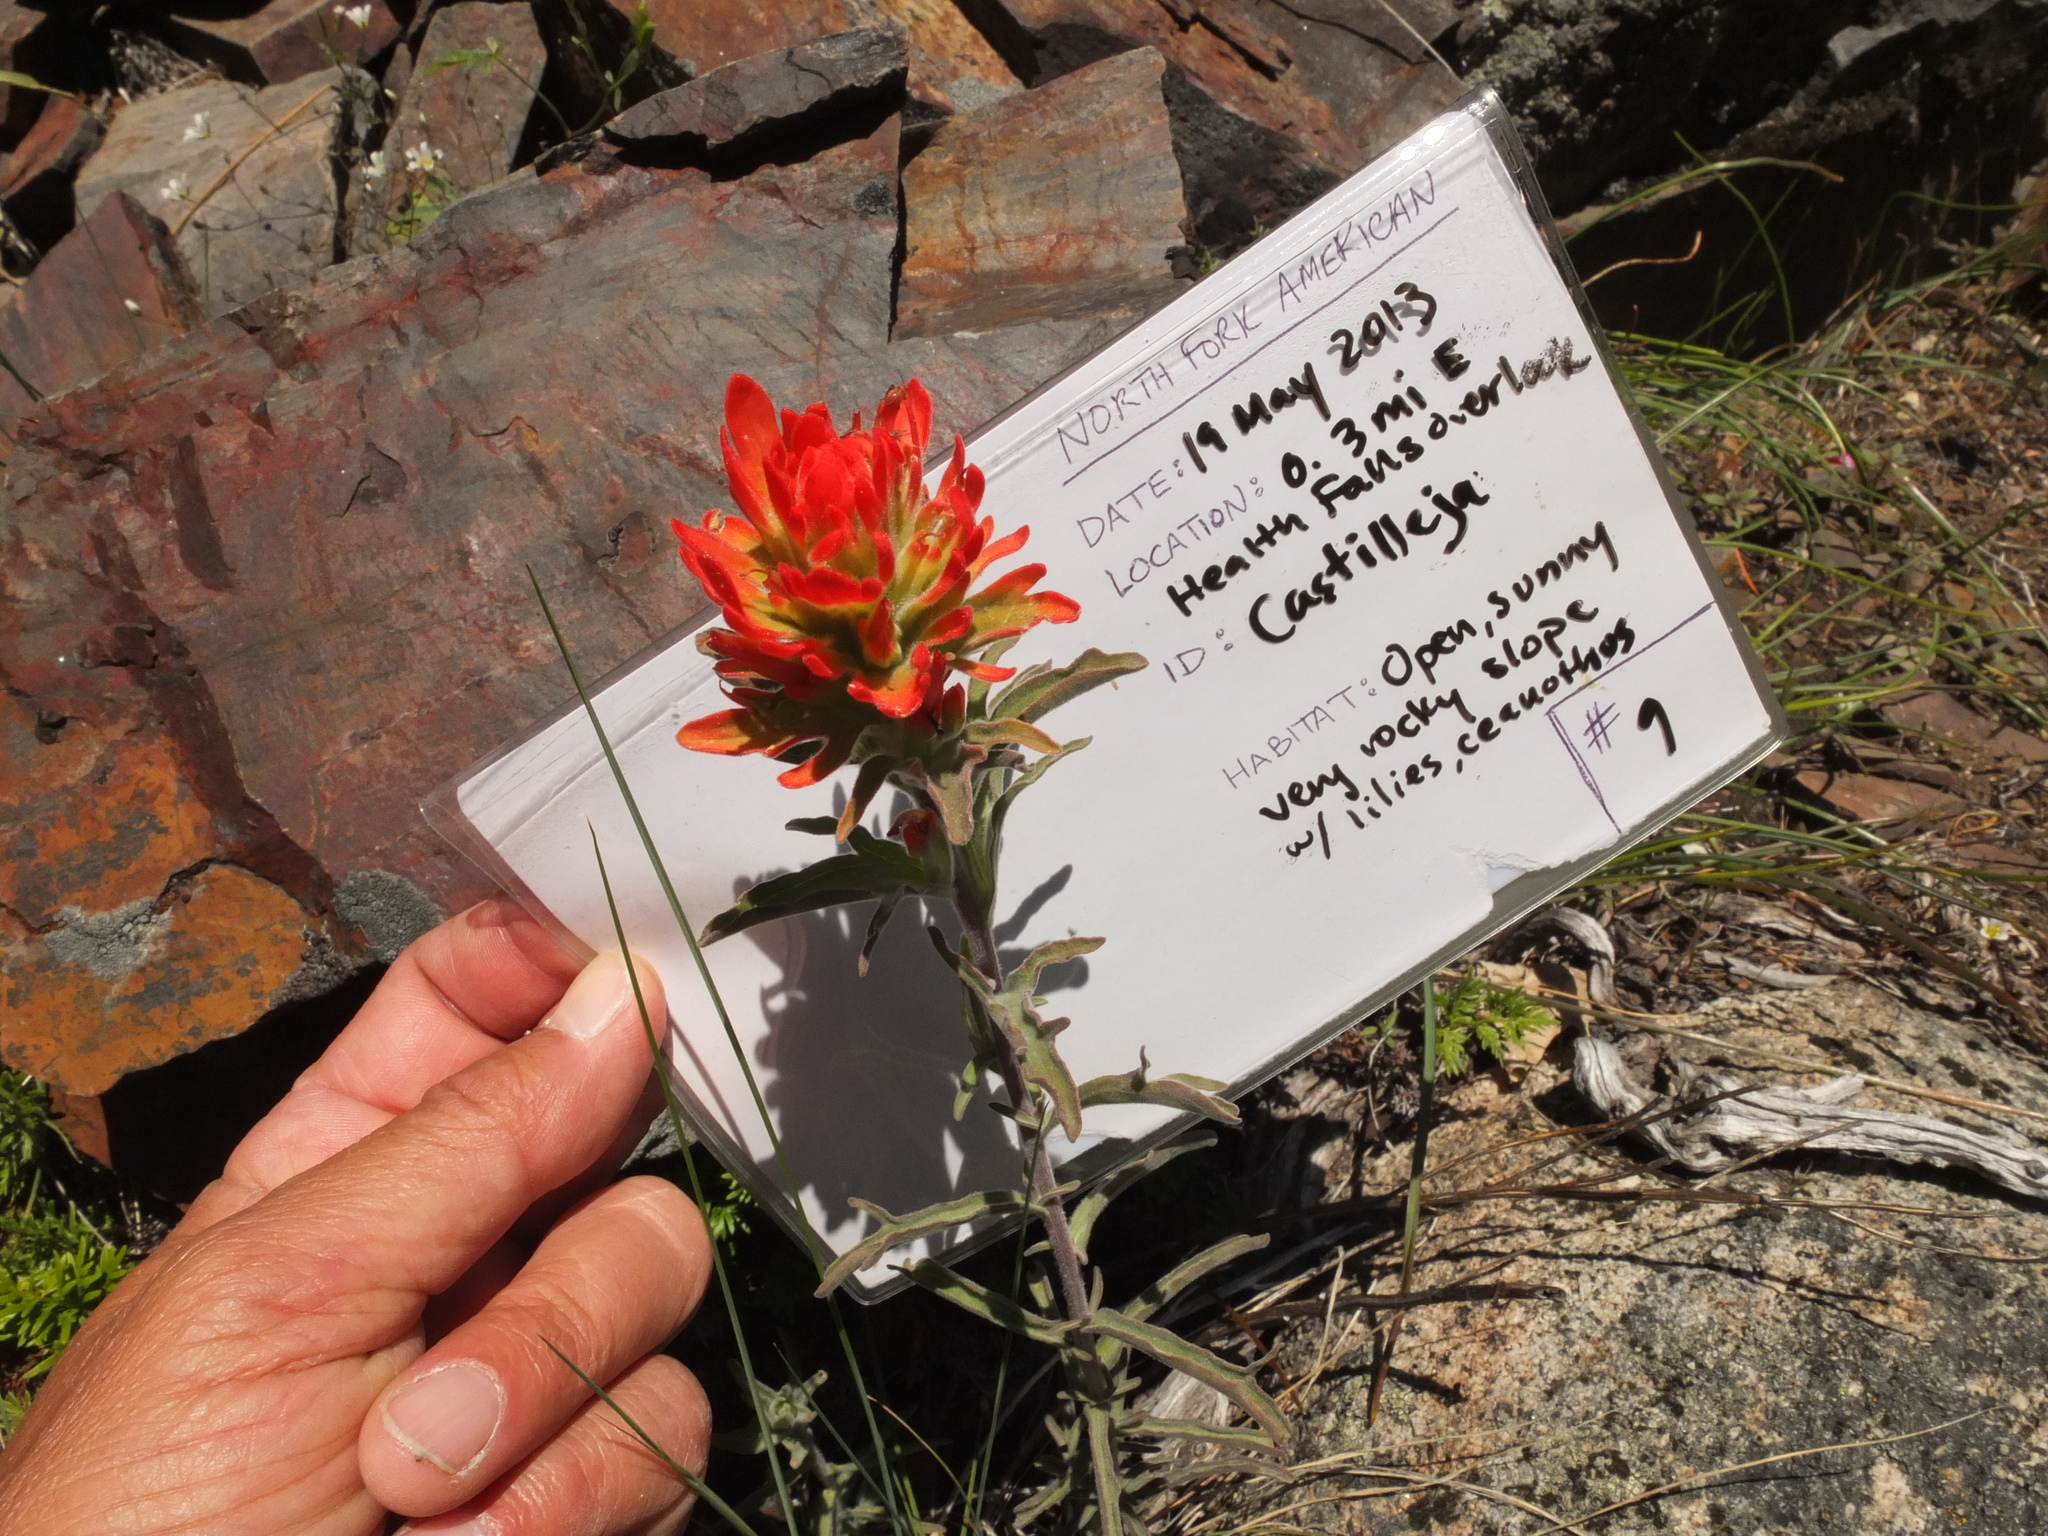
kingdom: Plantae
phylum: Tracheophyta
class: Magnoliopsida
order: Lamiales
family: Orobanchaceae
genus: Castilleja
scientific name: Castilleja applegatei
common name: Wavy-leaf paintbrush
